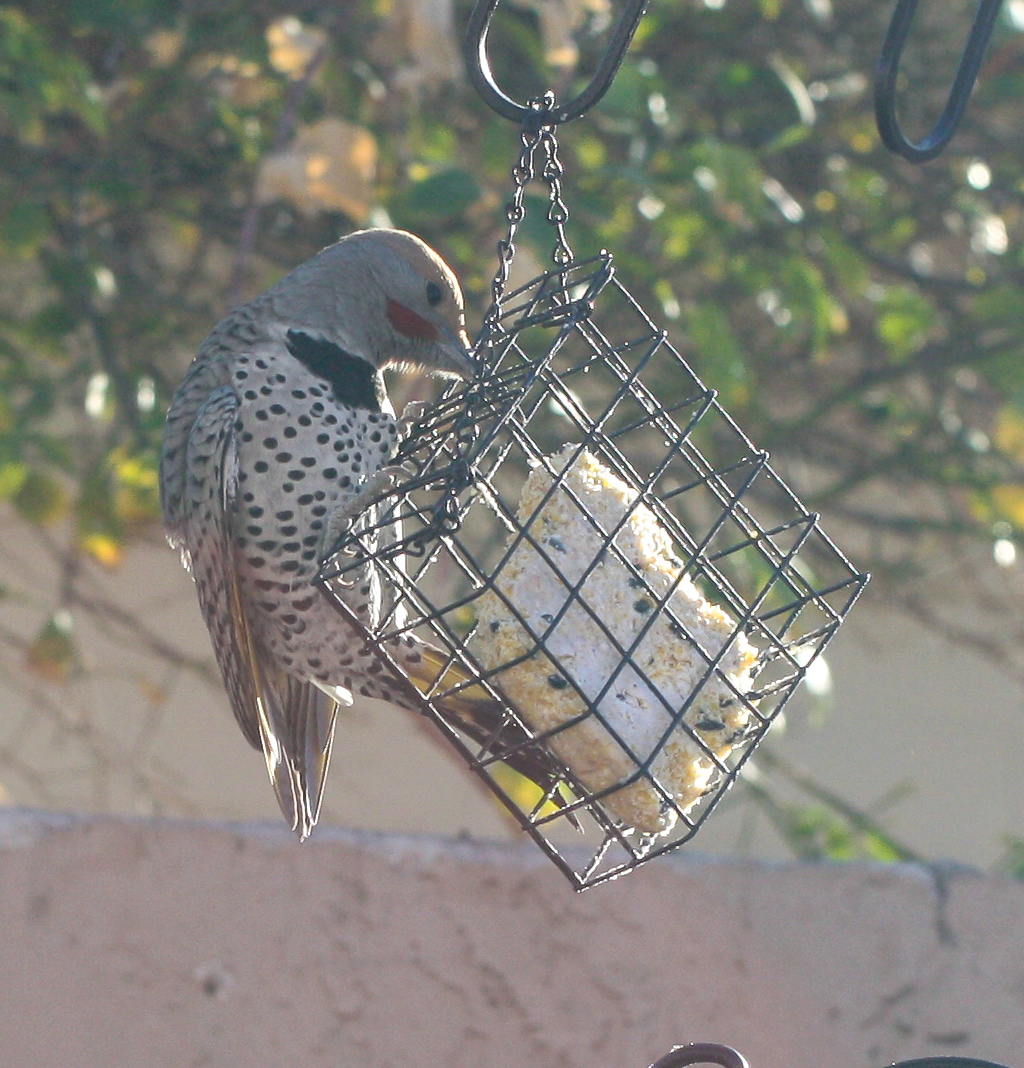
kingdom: Animalia
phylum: Chordata
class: Aves
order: Piciformes
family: Picidae
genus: Colaptes
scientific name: Colaptes auratus
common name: Northern flicker
